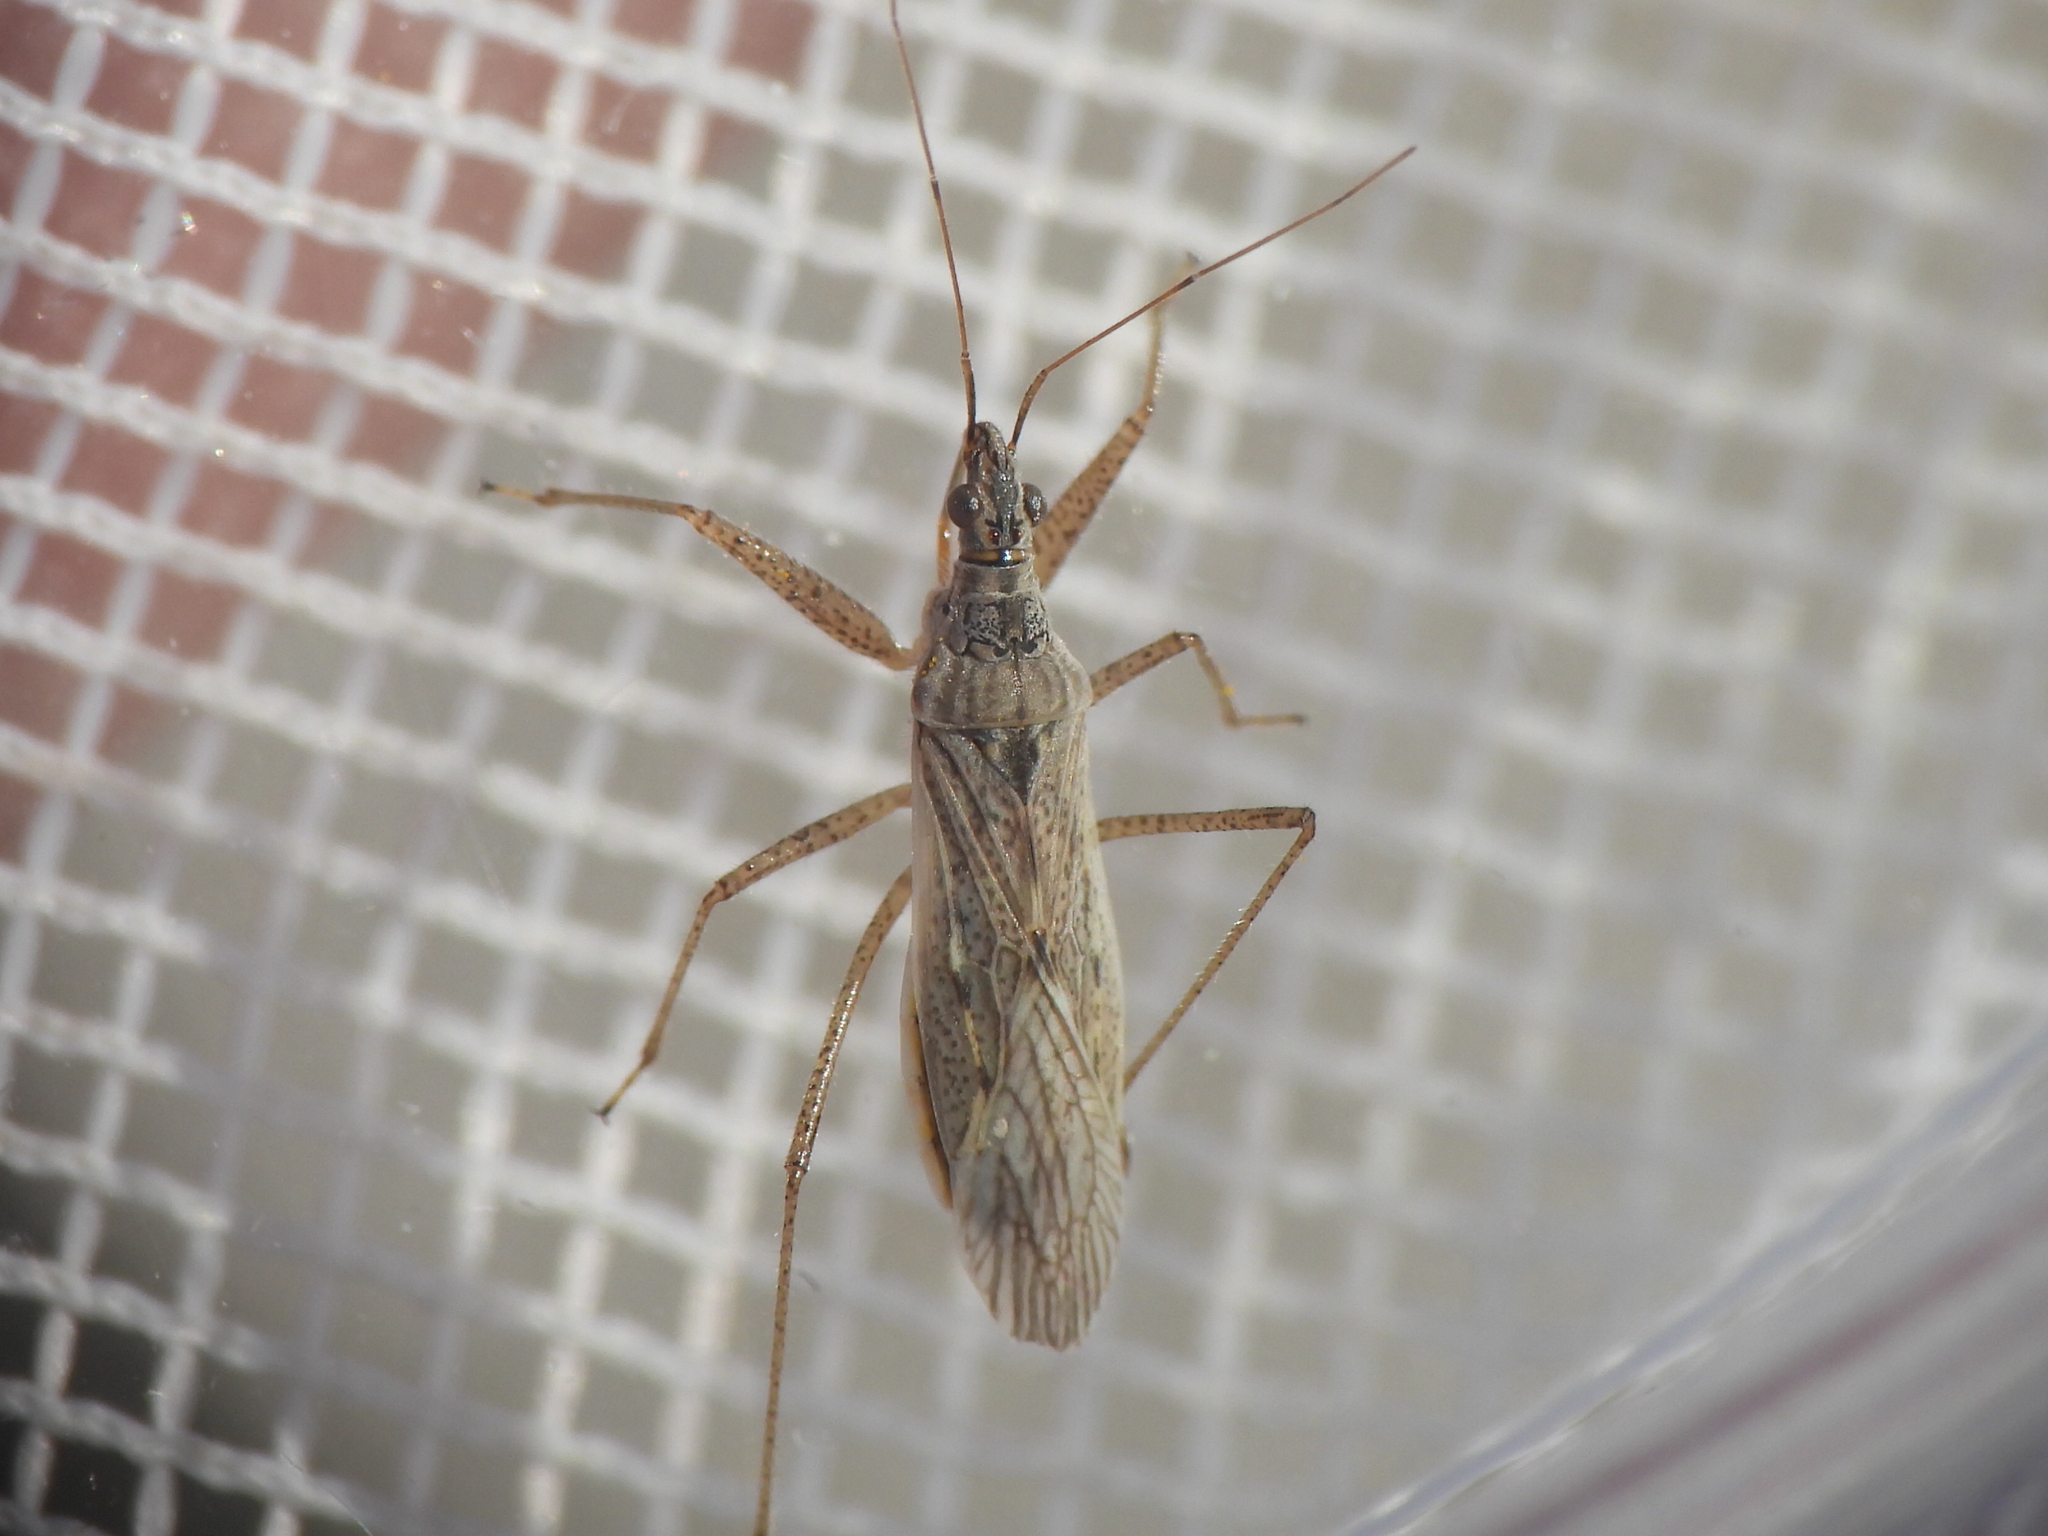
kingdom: Animalia
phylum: Arthropoda
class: Insecta
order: Hemiptera
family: Nabidae
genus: Nabis
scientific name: Nabis americoferus
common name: Common damsel bug
